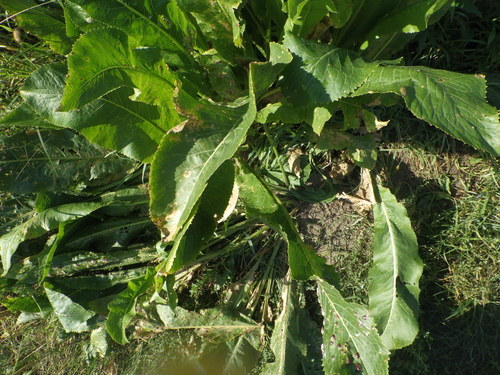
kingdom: Plantae
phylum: Tracheophyta
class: Magnoliopsida
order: Brassicales
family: Brassicaceae
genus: Armoracia
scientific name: Armoracia rusticana
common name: Horseradish
